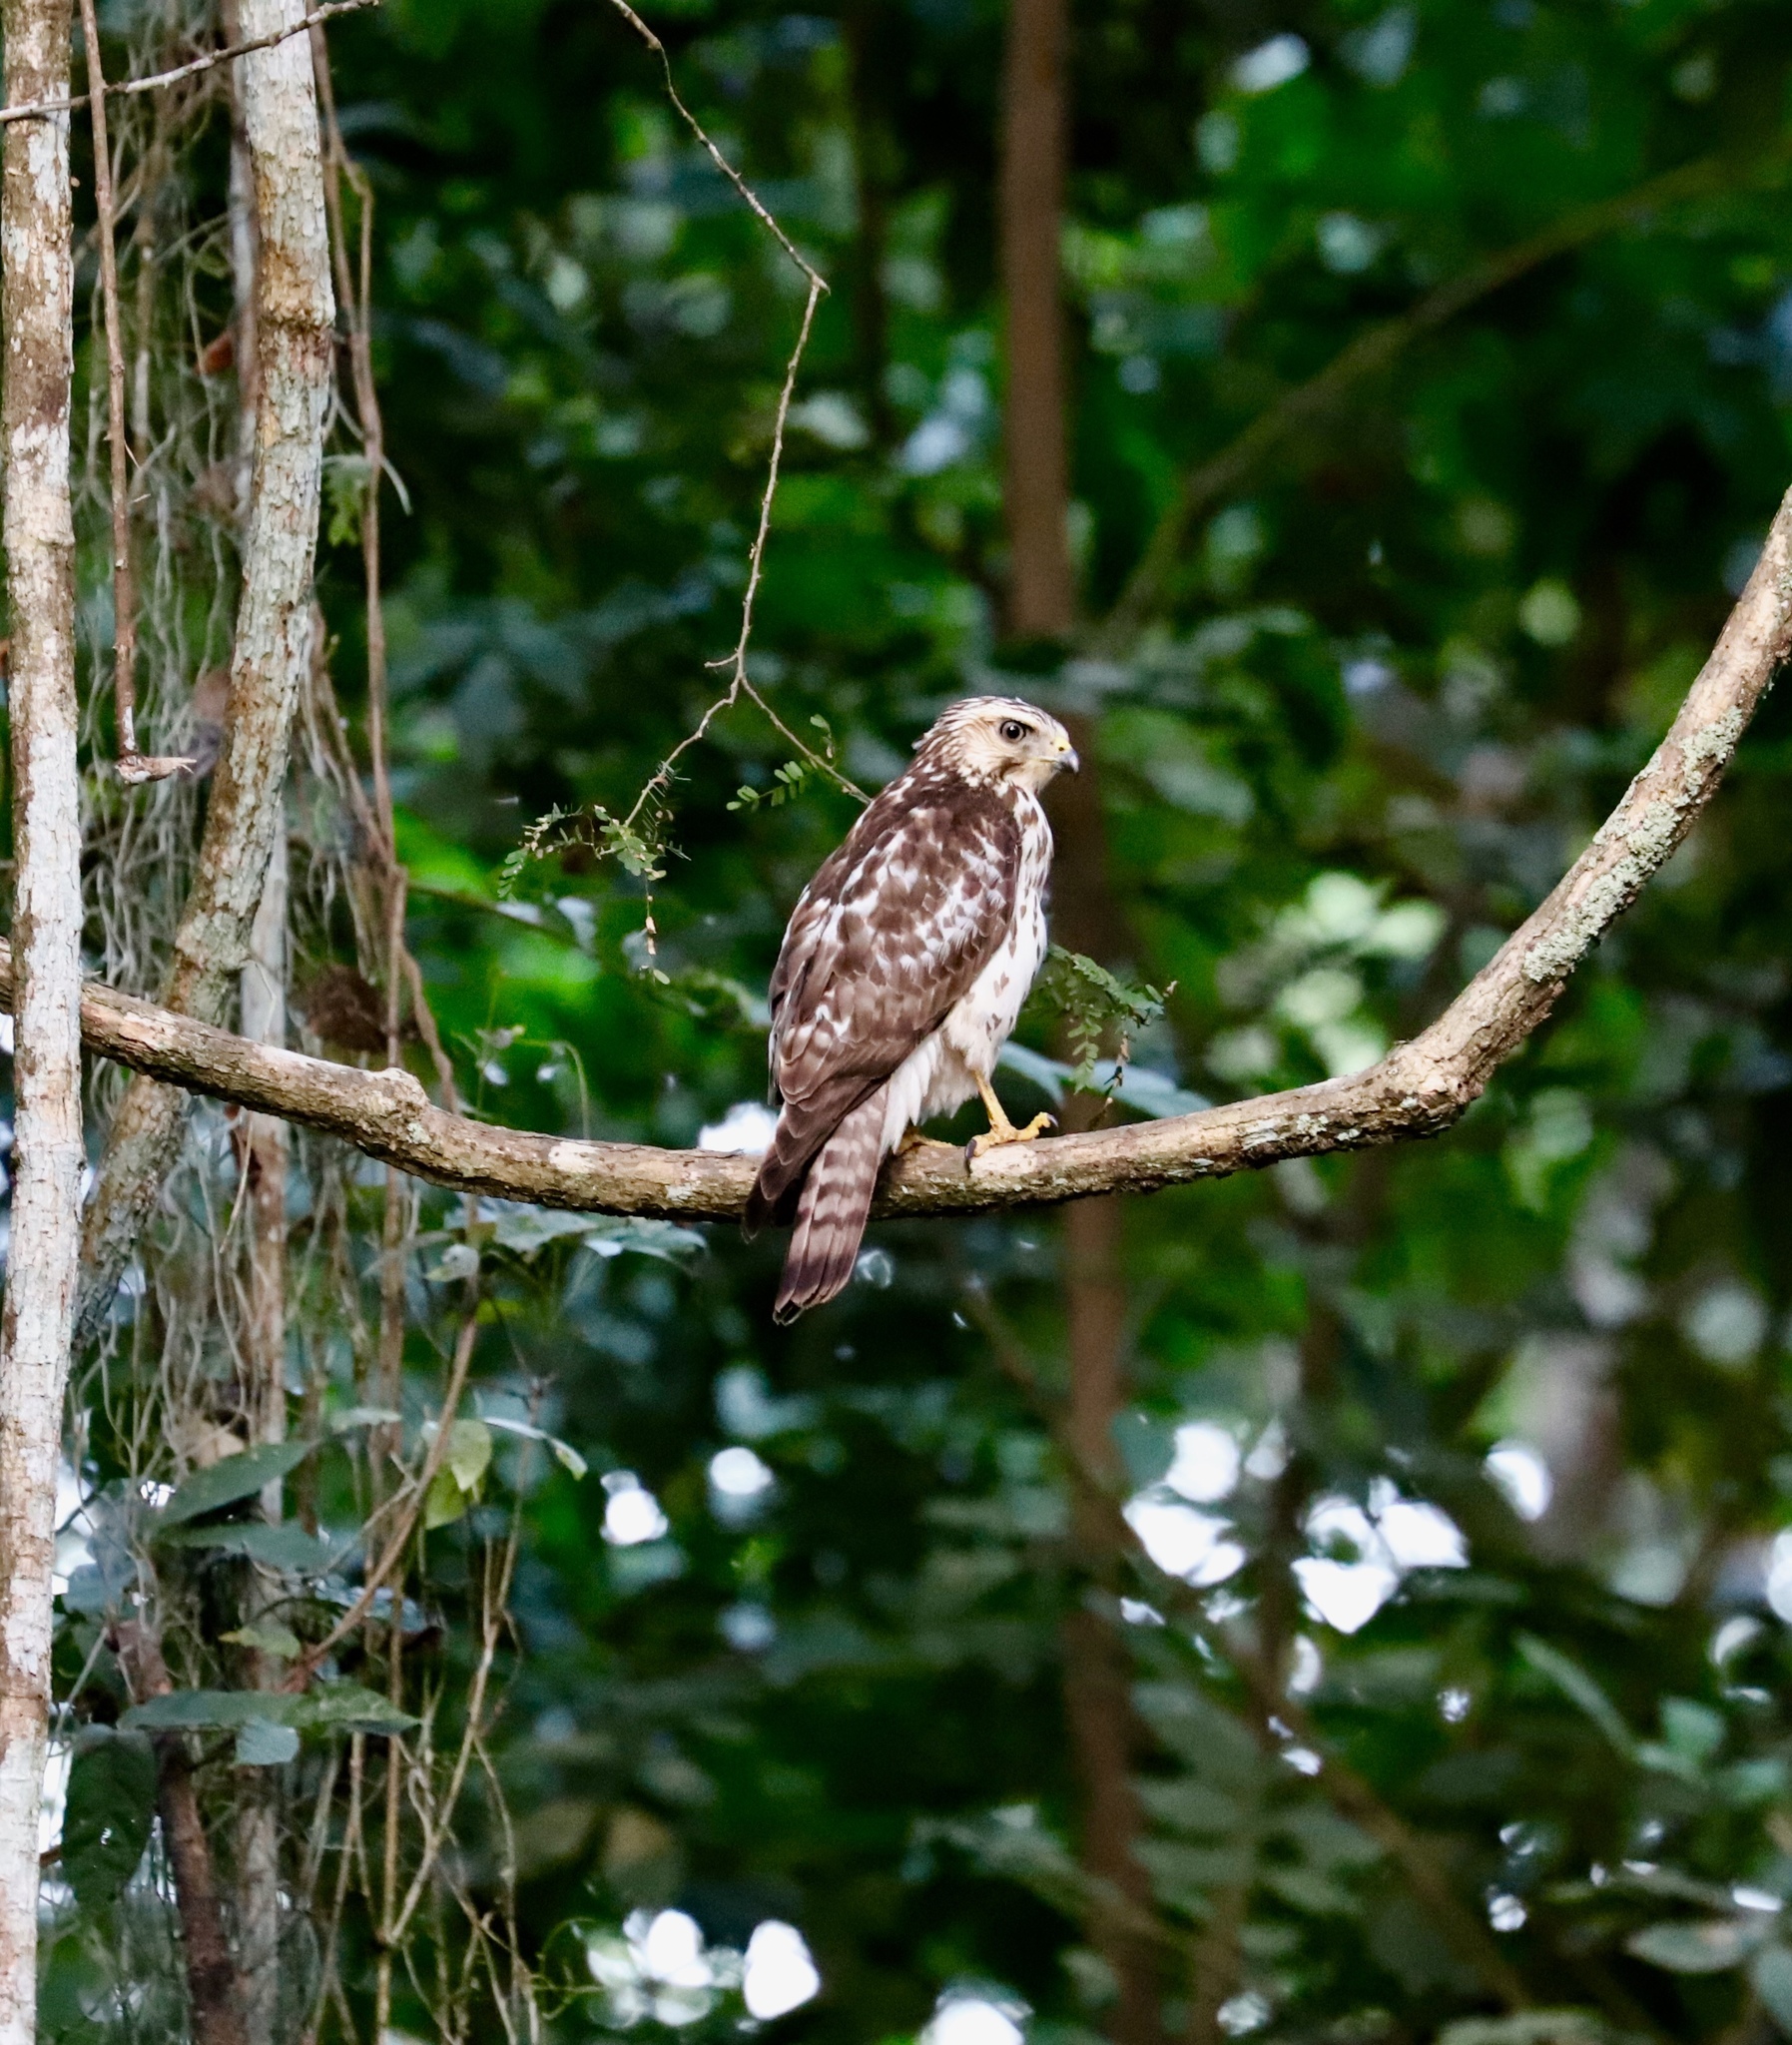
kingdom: Animalia
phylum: Chordata
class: Aves
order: Accipitriformes
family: Accipitridae
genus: Buteo
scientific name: Buteo platypterus
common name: Broad-winged hawk
